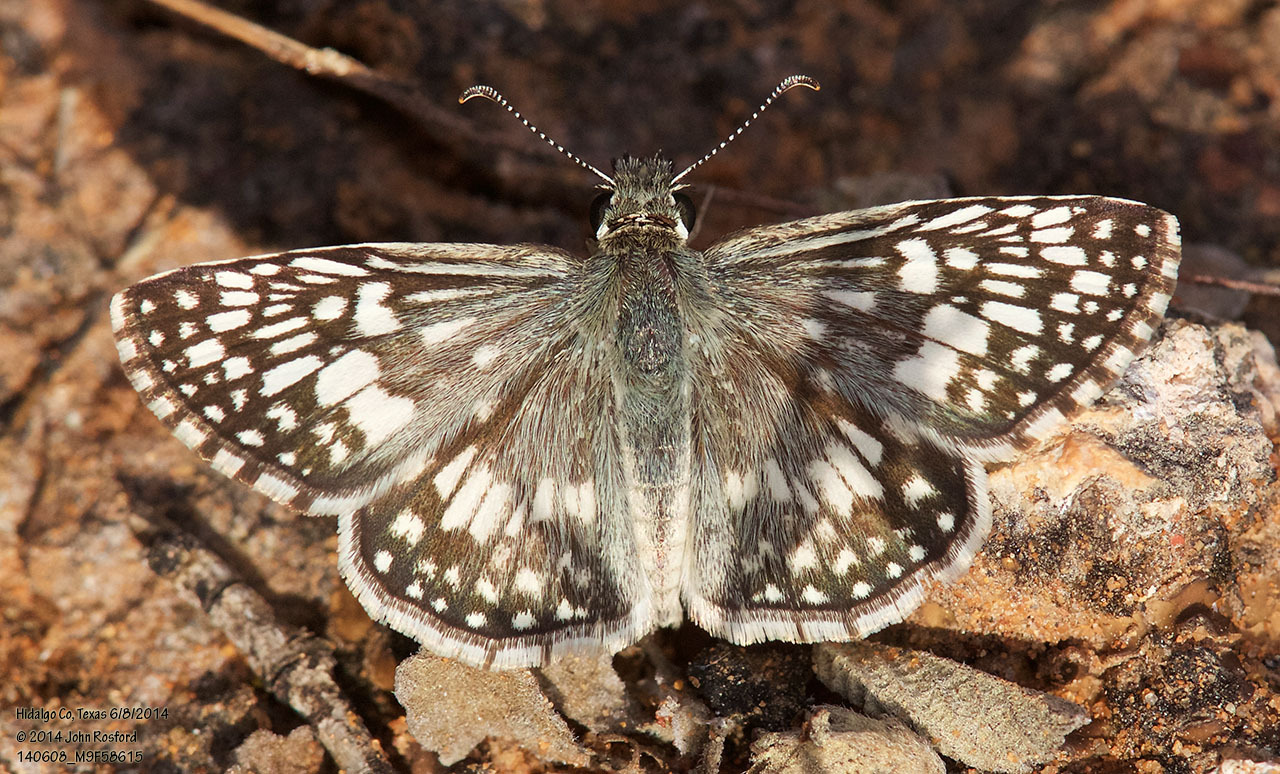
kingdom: Animalia
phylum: Arthropoda
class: Insecta
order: Lepidoptera
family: Hesperiidae
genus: Burnsius
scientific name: Burnsius philetas
